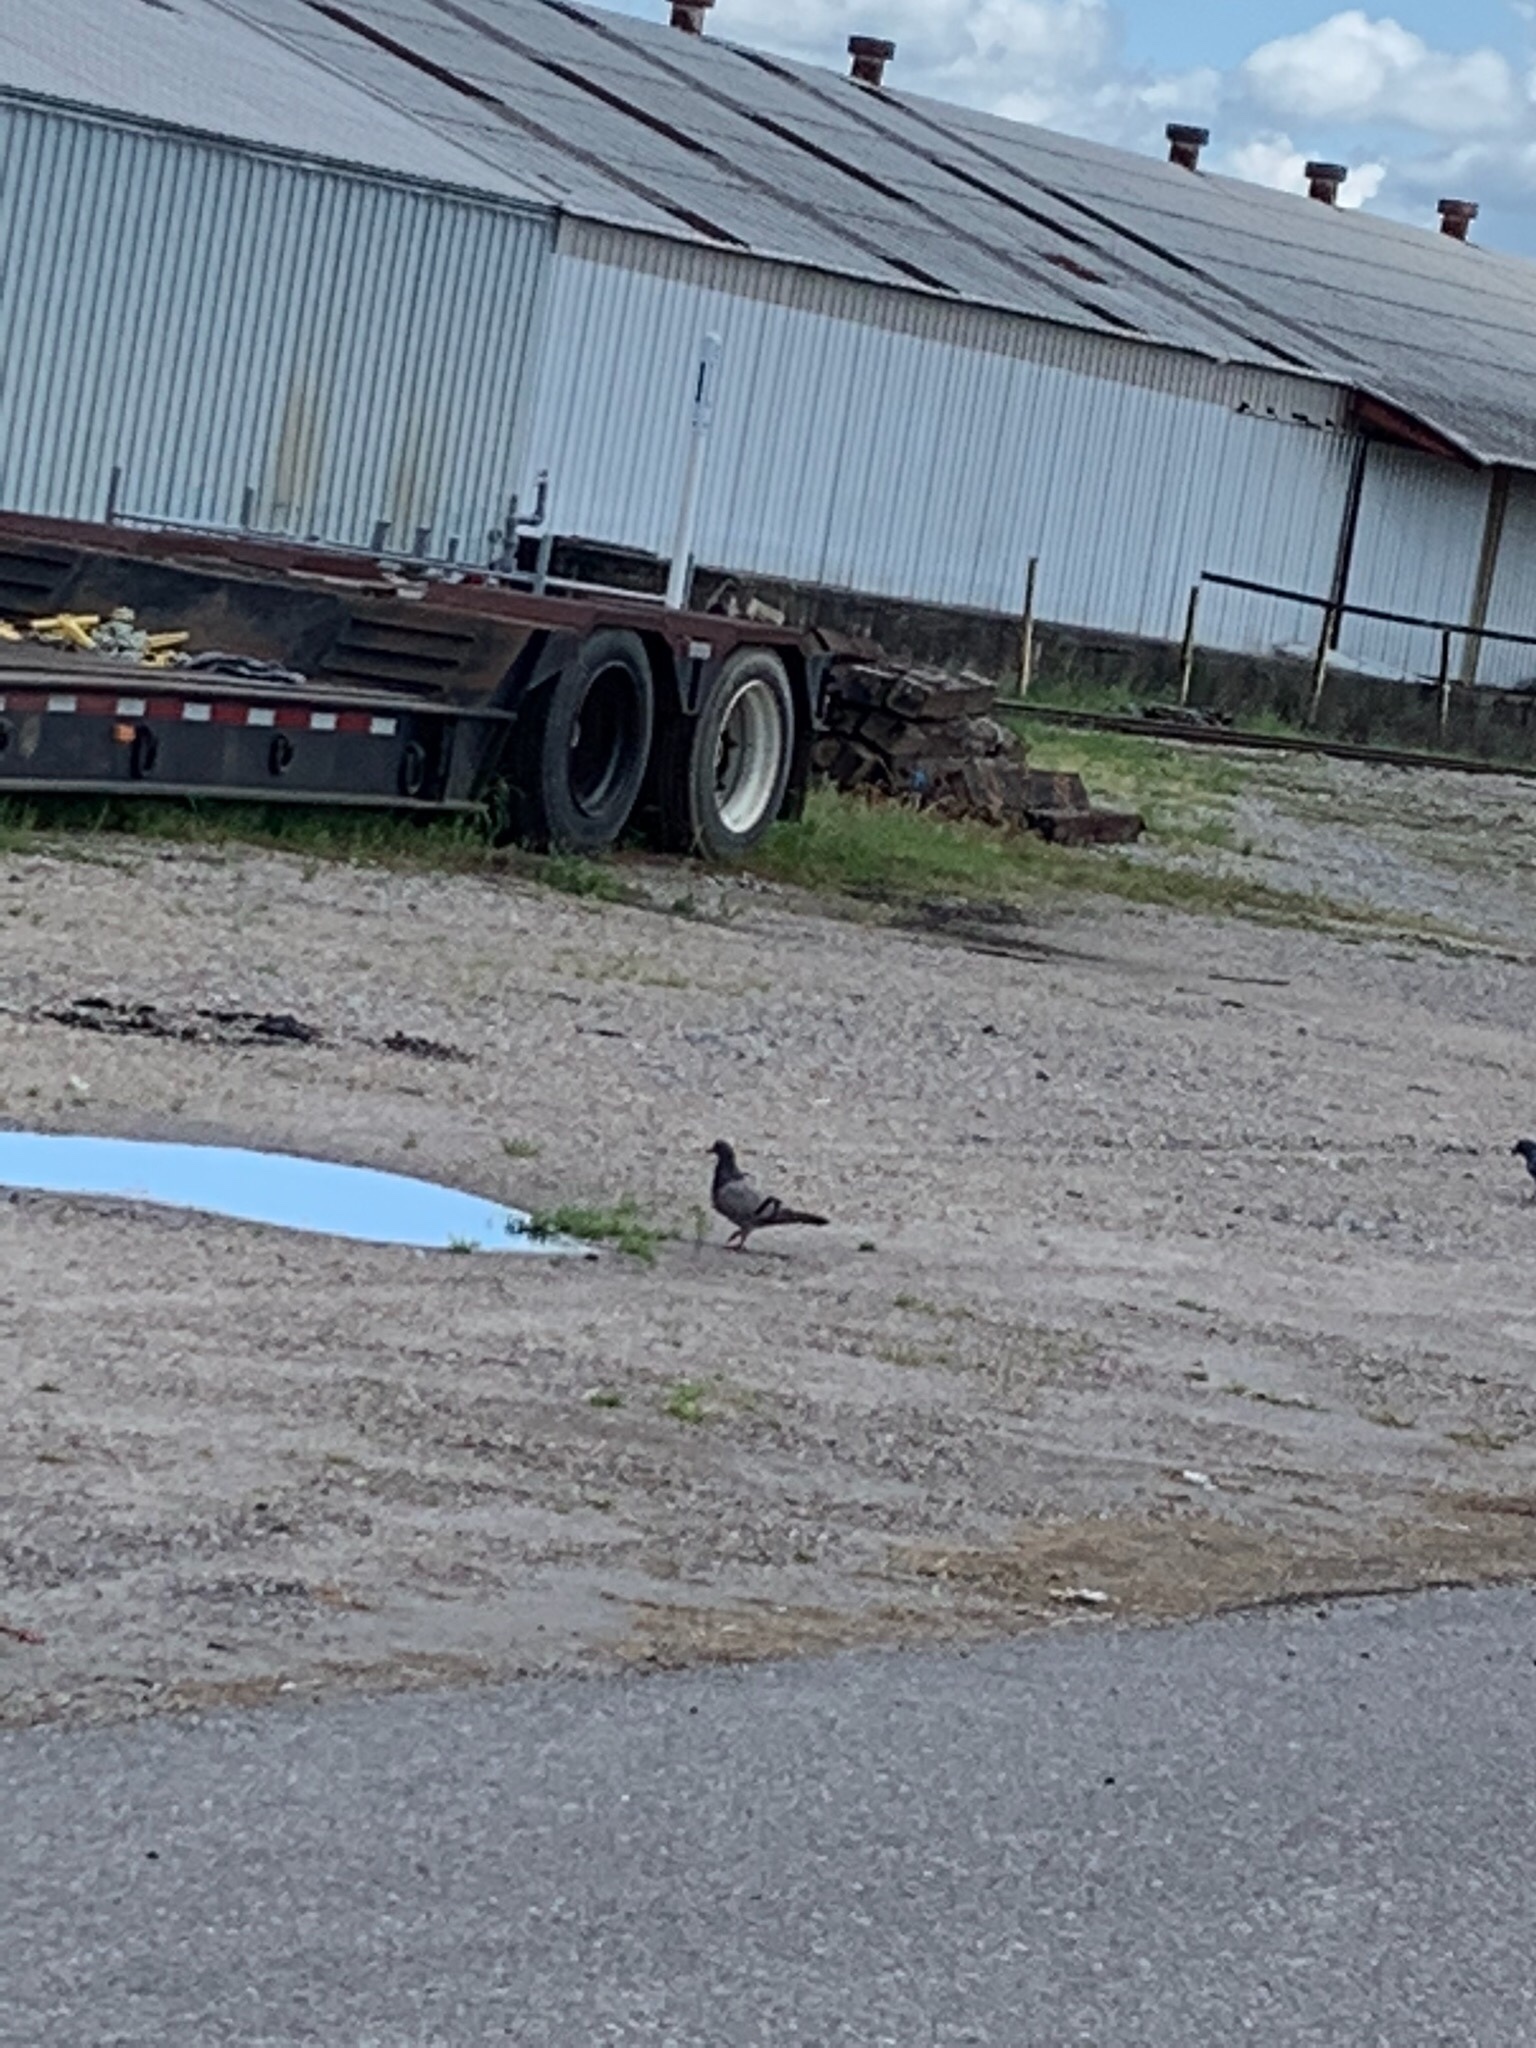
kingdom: Animalia
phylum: Chordata
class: Aves
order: Columbiformes
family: Columbidae
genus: Columba
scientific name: Columba livia
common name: Rock pigeon
